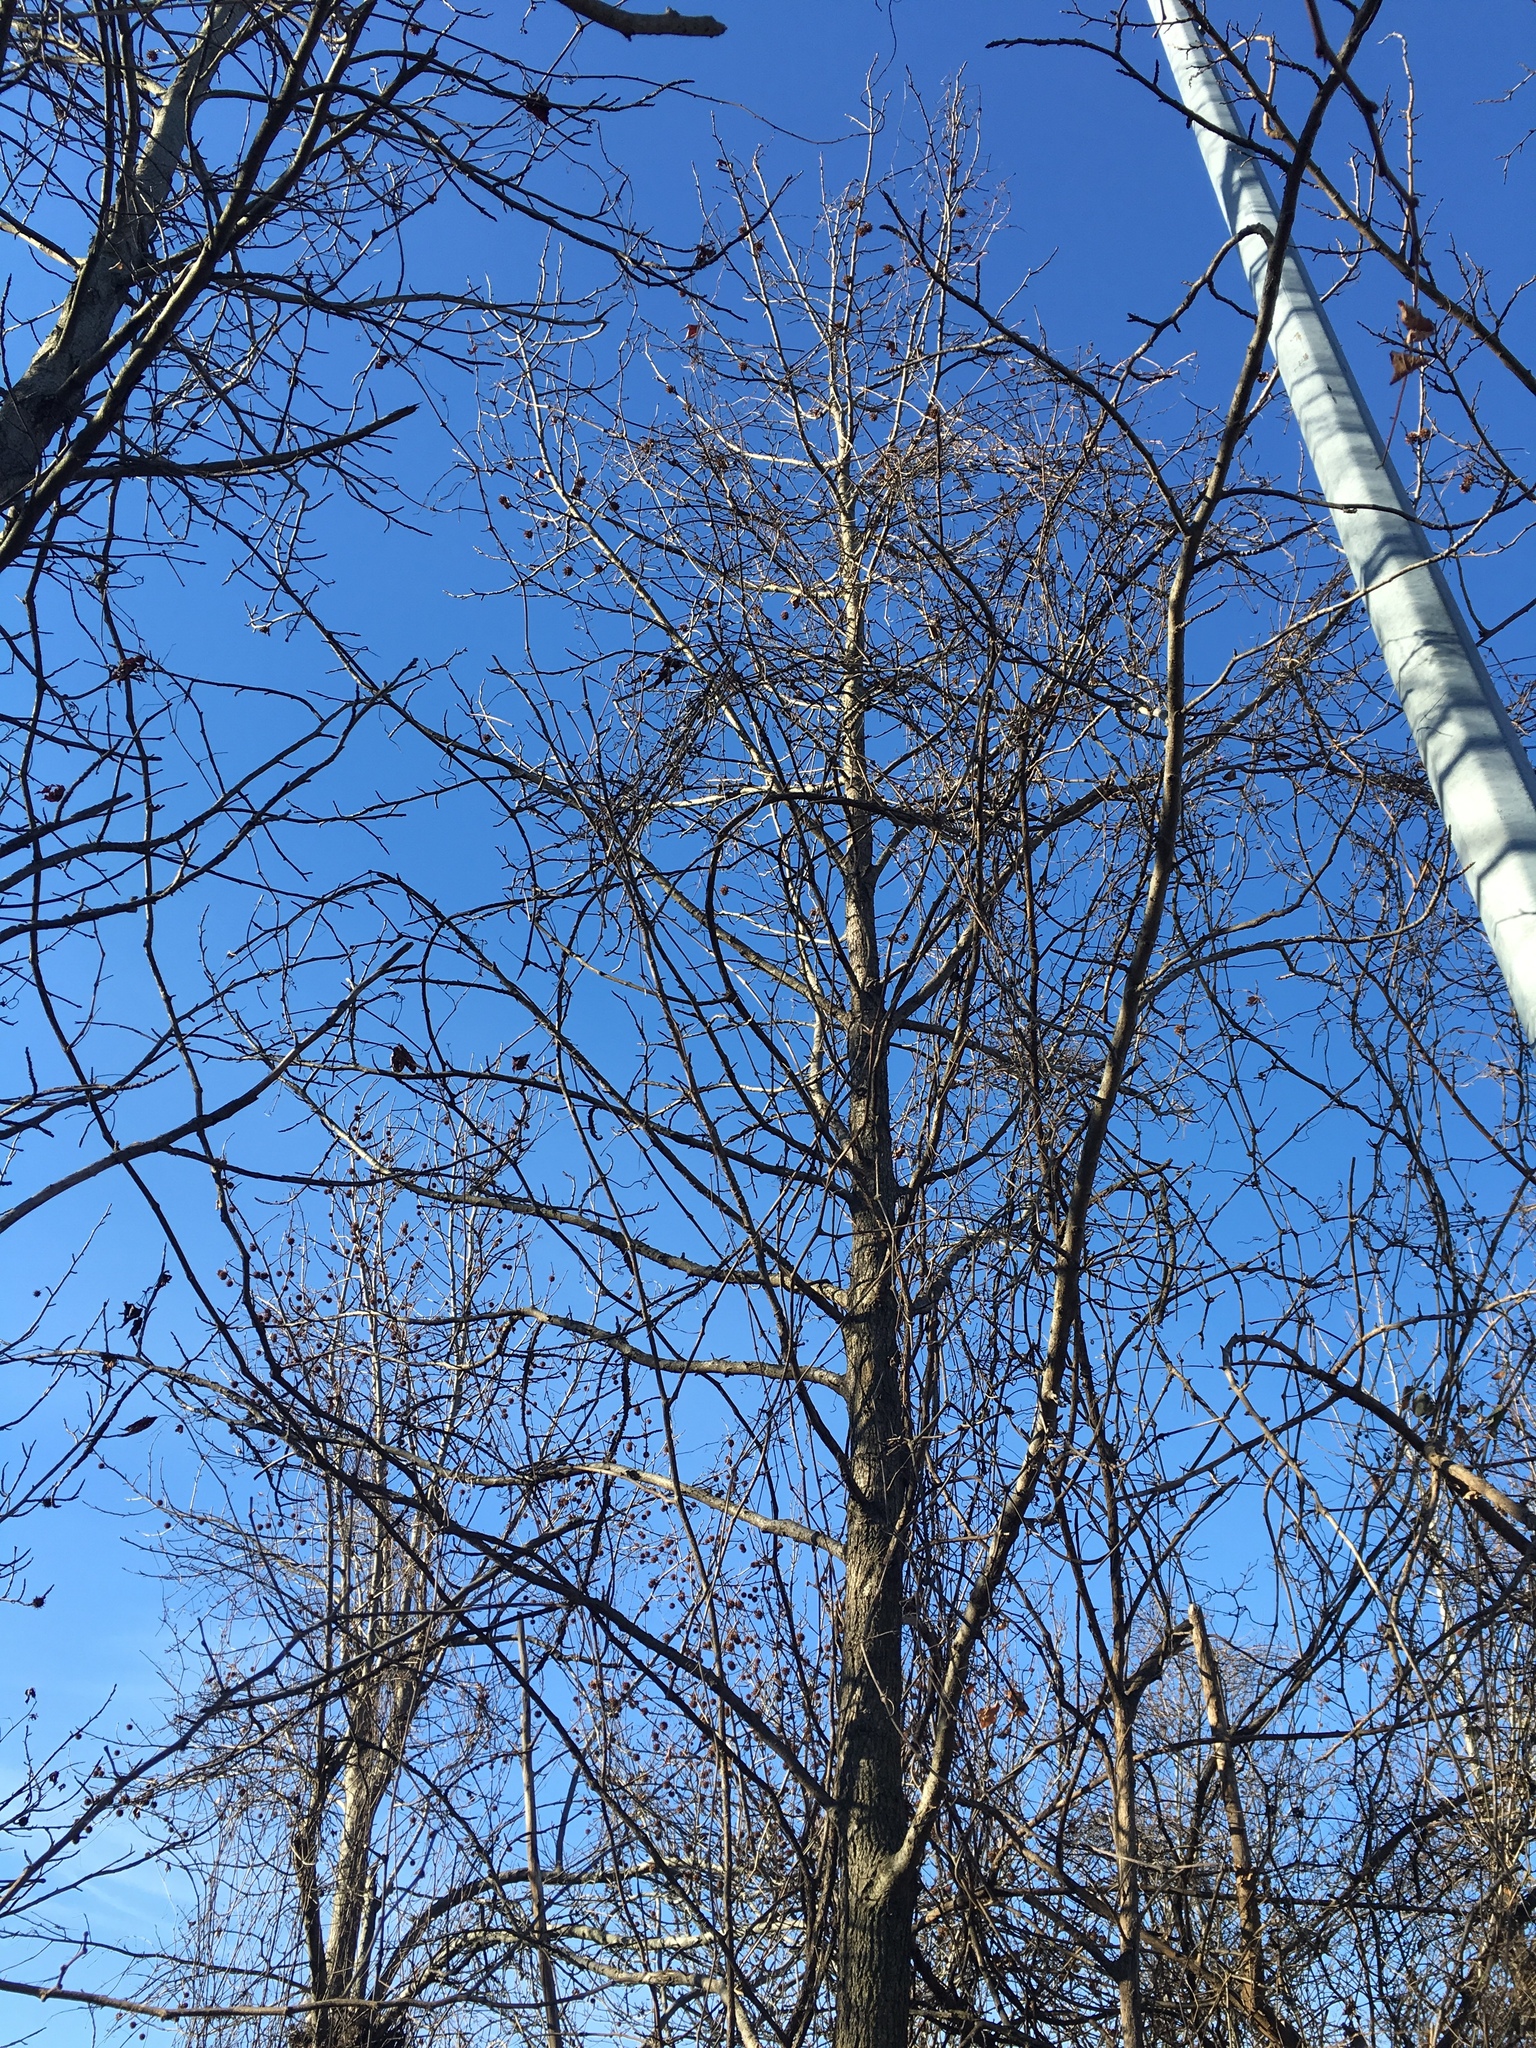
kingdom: Plantae
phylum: Tracheophyta
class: Magnoliopsida
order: Saxifragales
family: Altingiaceae
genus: Liquidambar
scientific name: Liquidambar styraciflua
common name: Sweet gum
